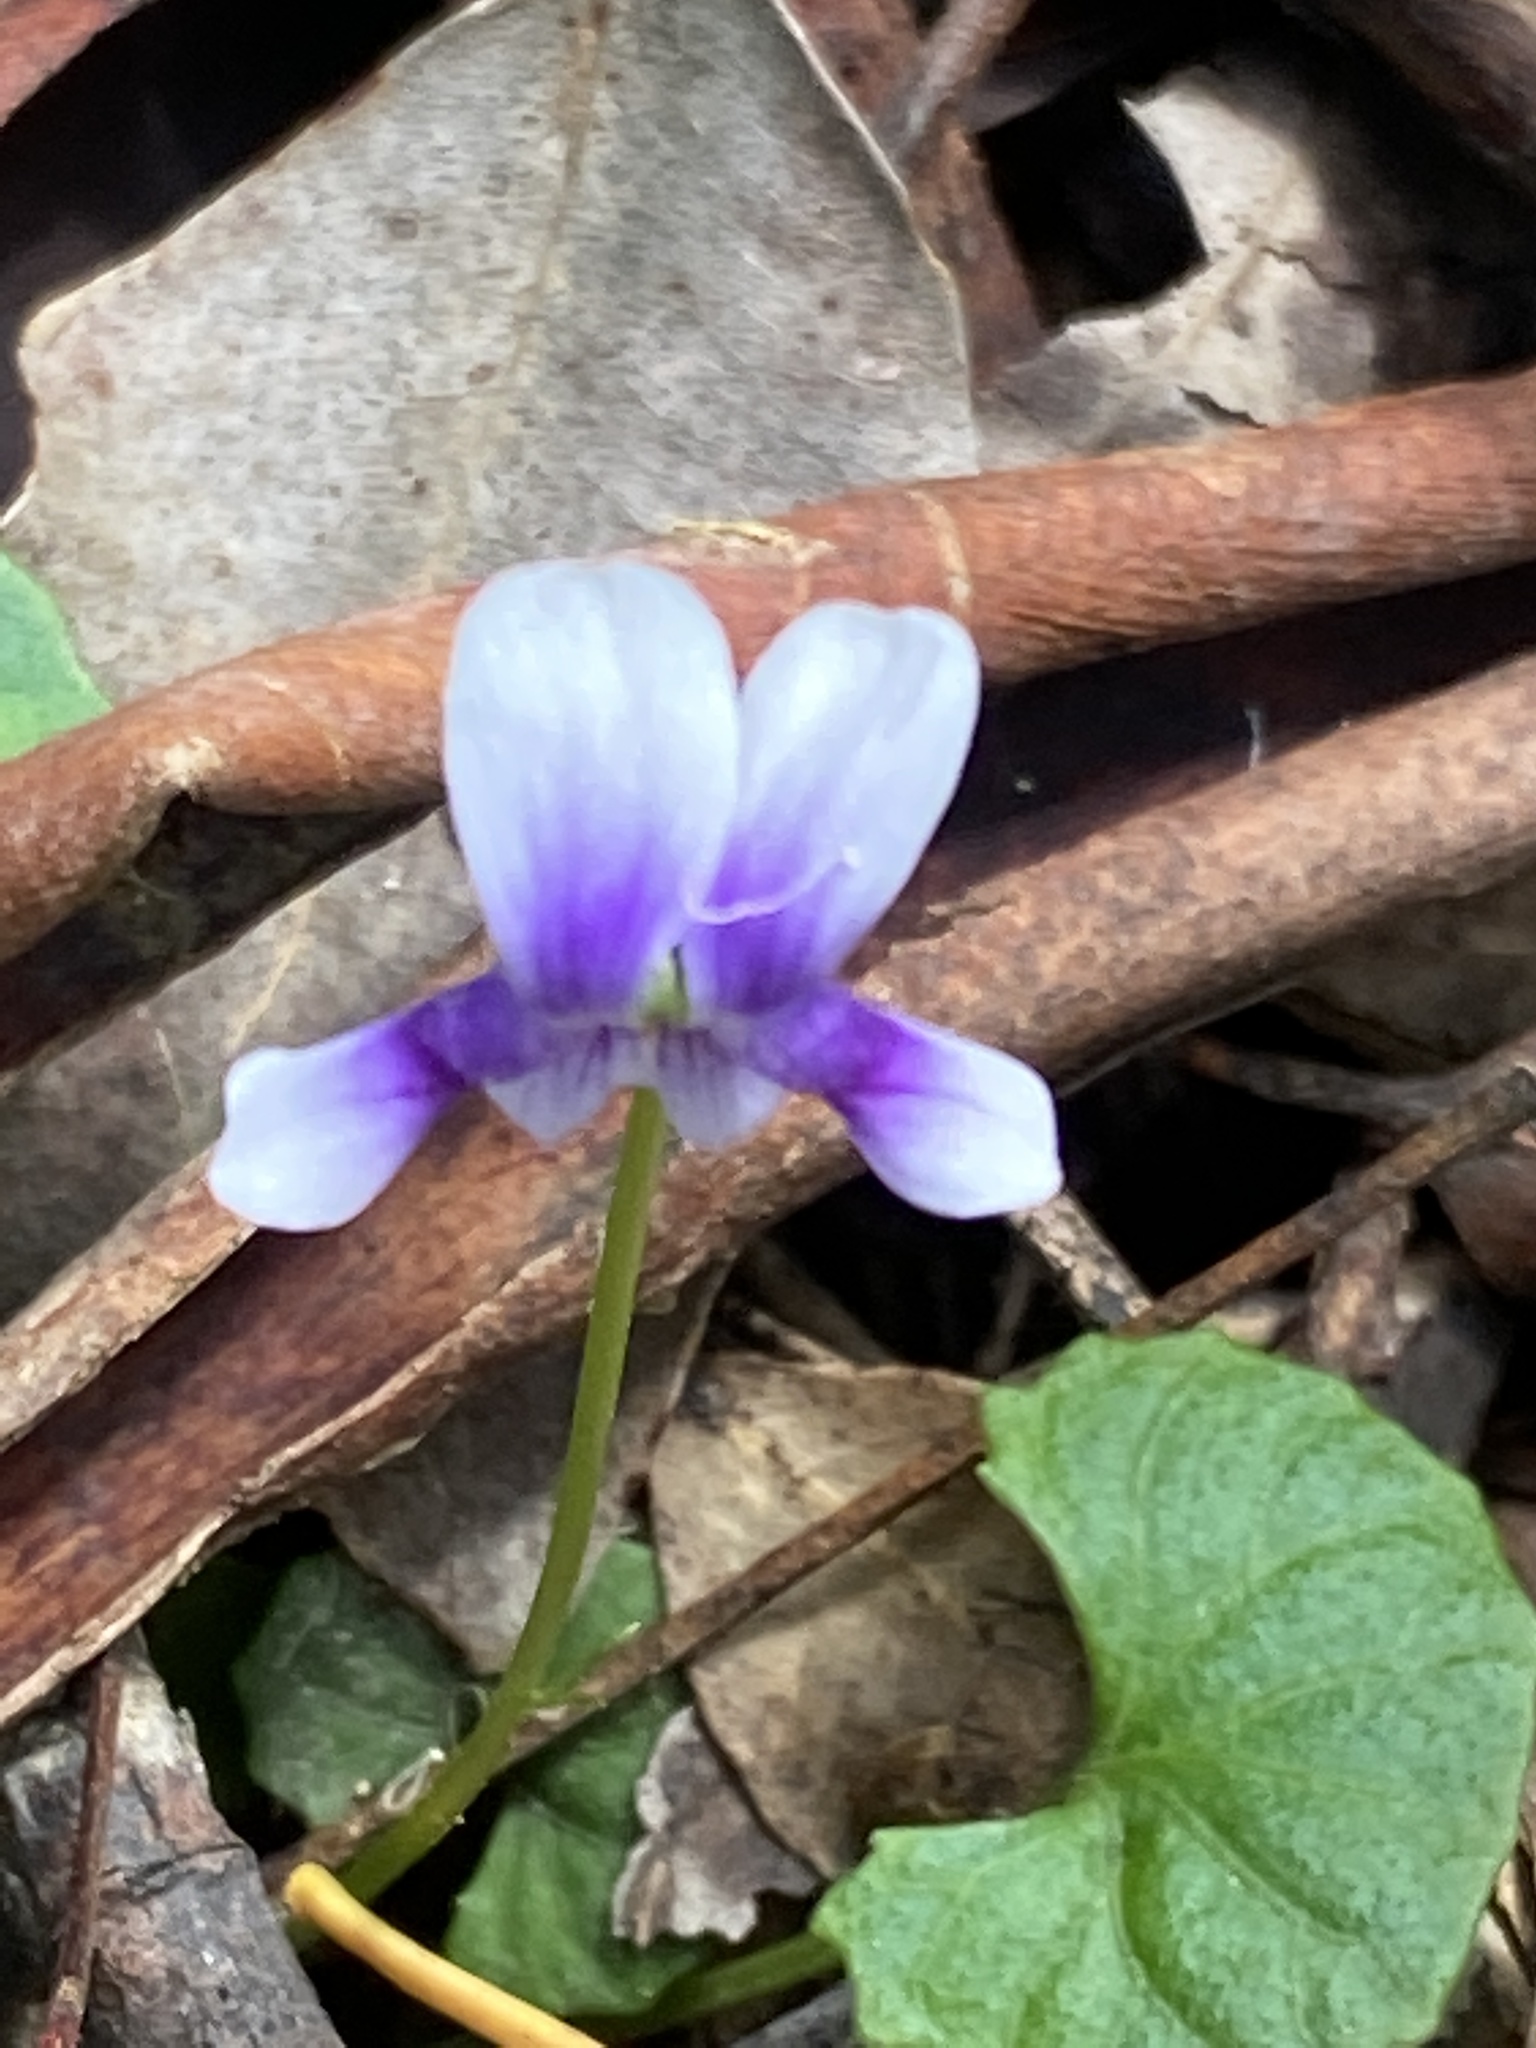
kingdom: Plantae
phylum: Tracheophyta
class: Magnoliopsida
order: Malpighiales
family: Violaceae
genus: Viola
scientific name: Viola hederacea
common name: Australian violet
